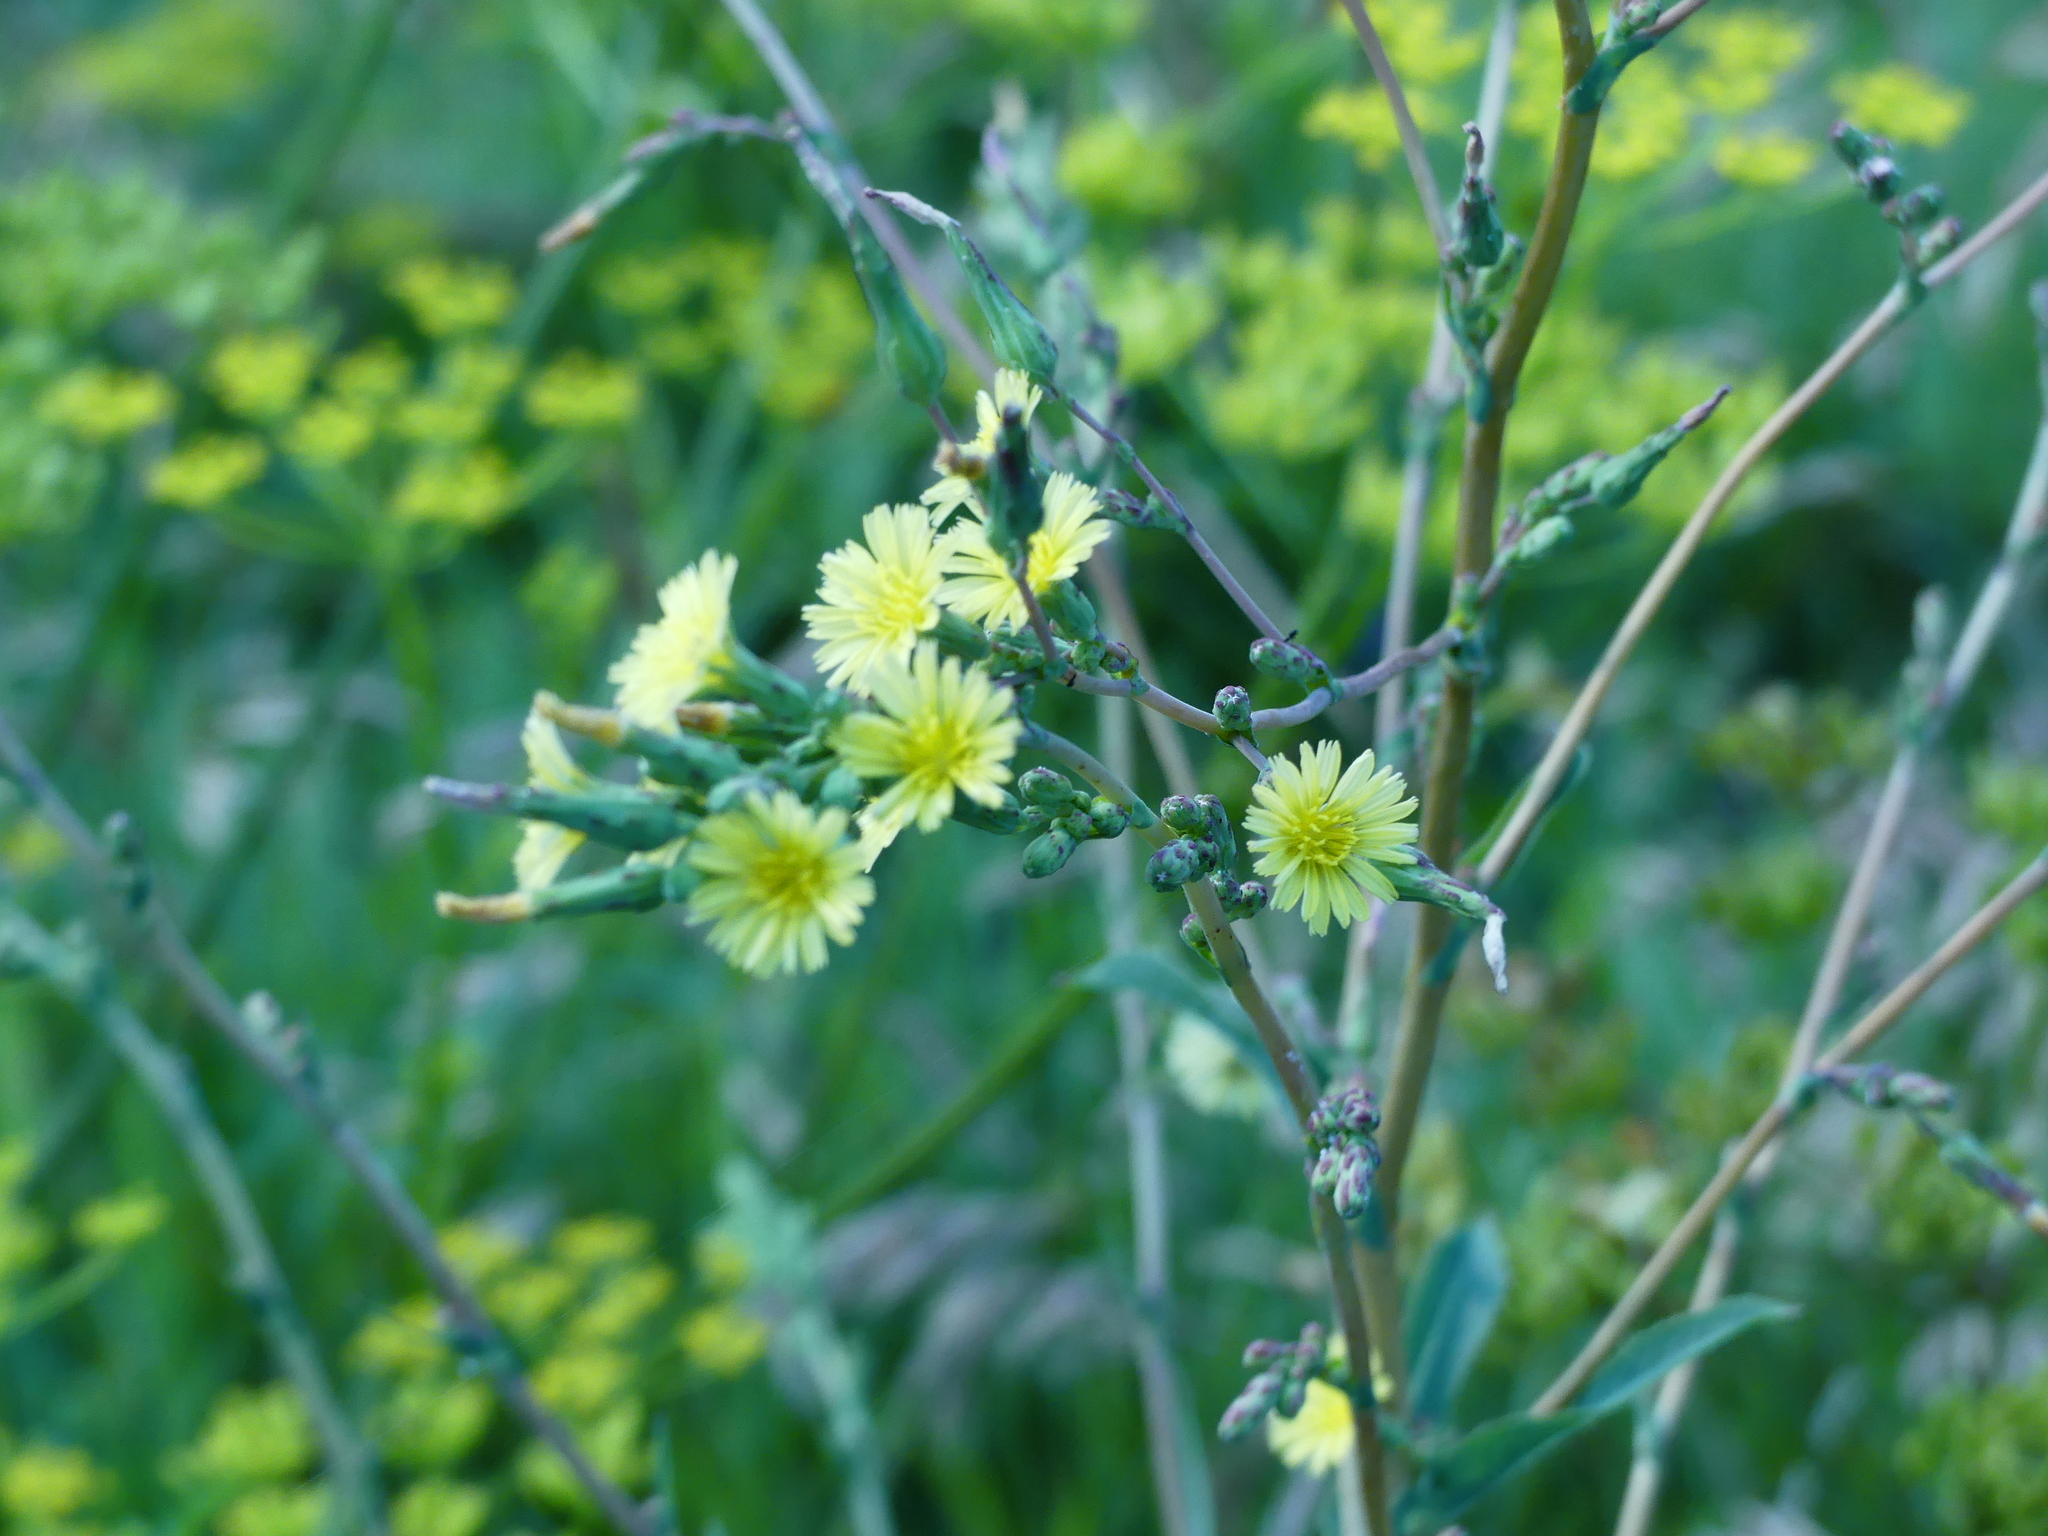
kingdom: Plantae
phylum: Tracheophyta
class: Magnoliopsida
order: Asterales
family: Asteraceae
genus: Lactuca
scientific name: Lactuca serriola
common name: Prickly lettuce
